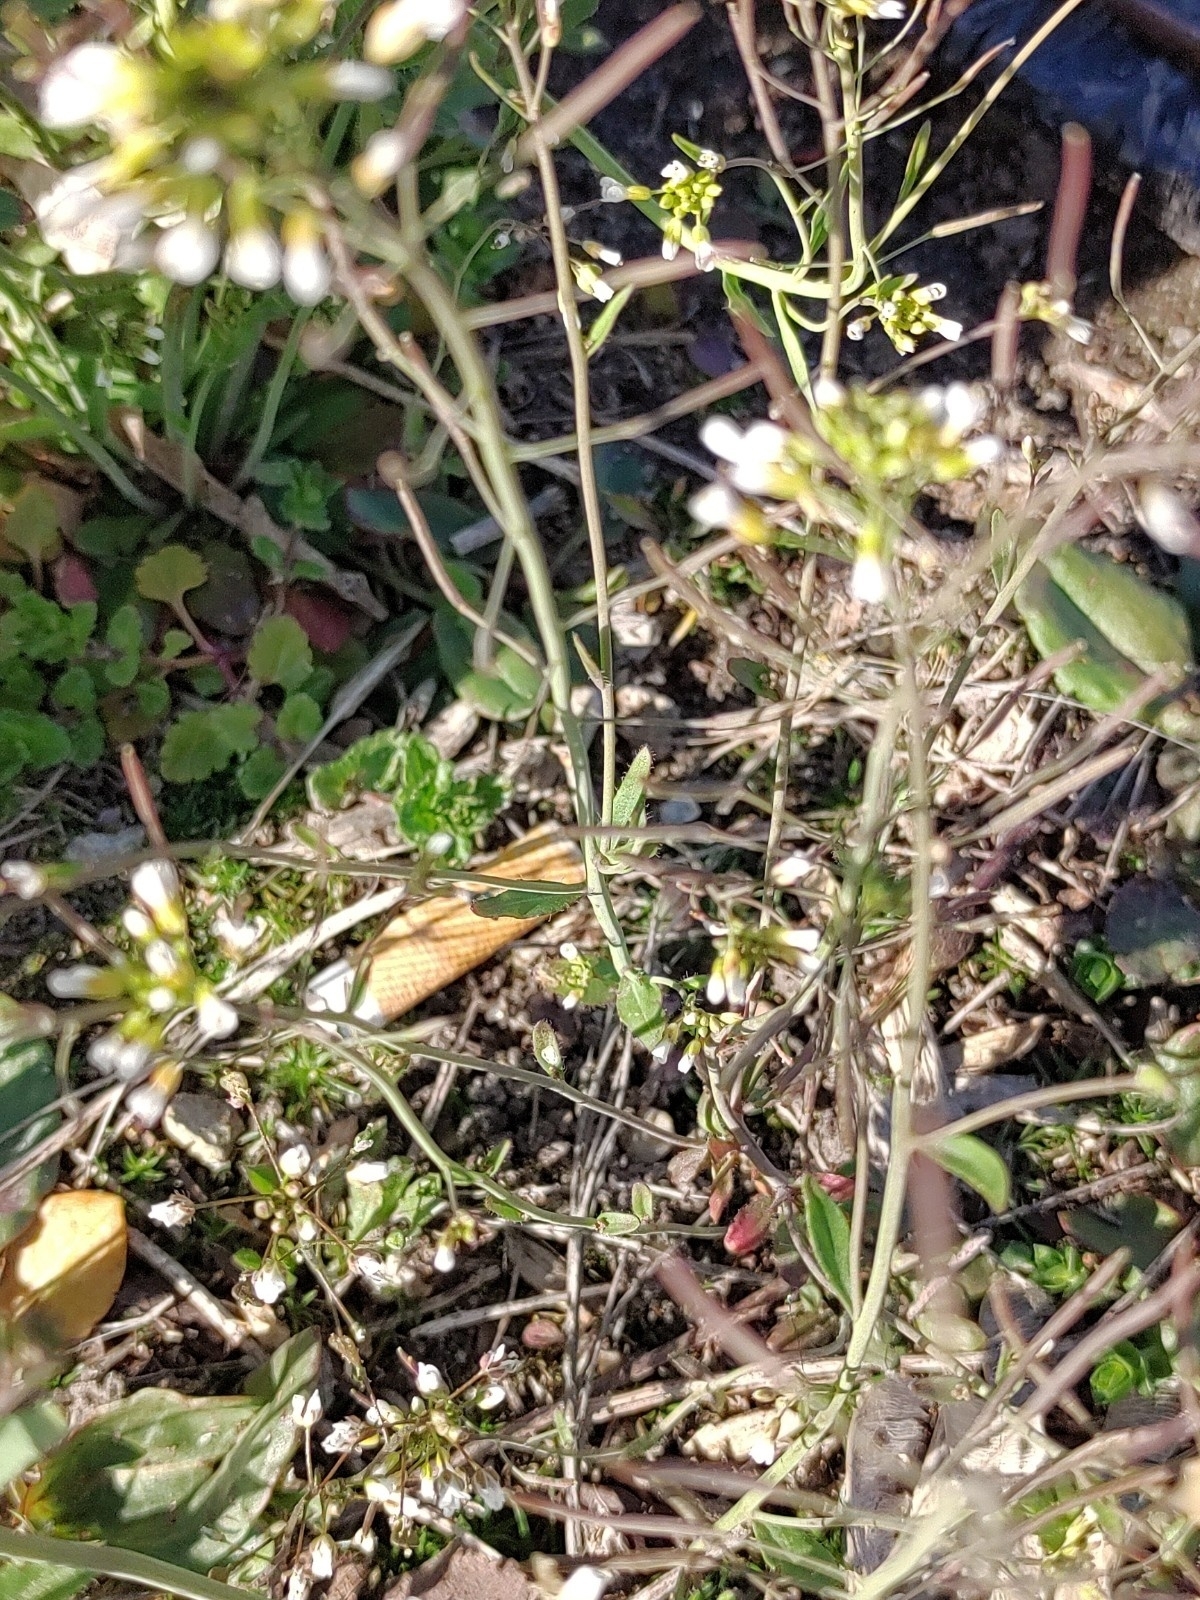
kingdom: Plantae
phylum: Tracheophyta
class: Magnoliopsida
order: Brassicales
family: Brassicaceae
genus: Arabidopsis
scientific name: Arabidopsis thaliana
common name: Thale cress
